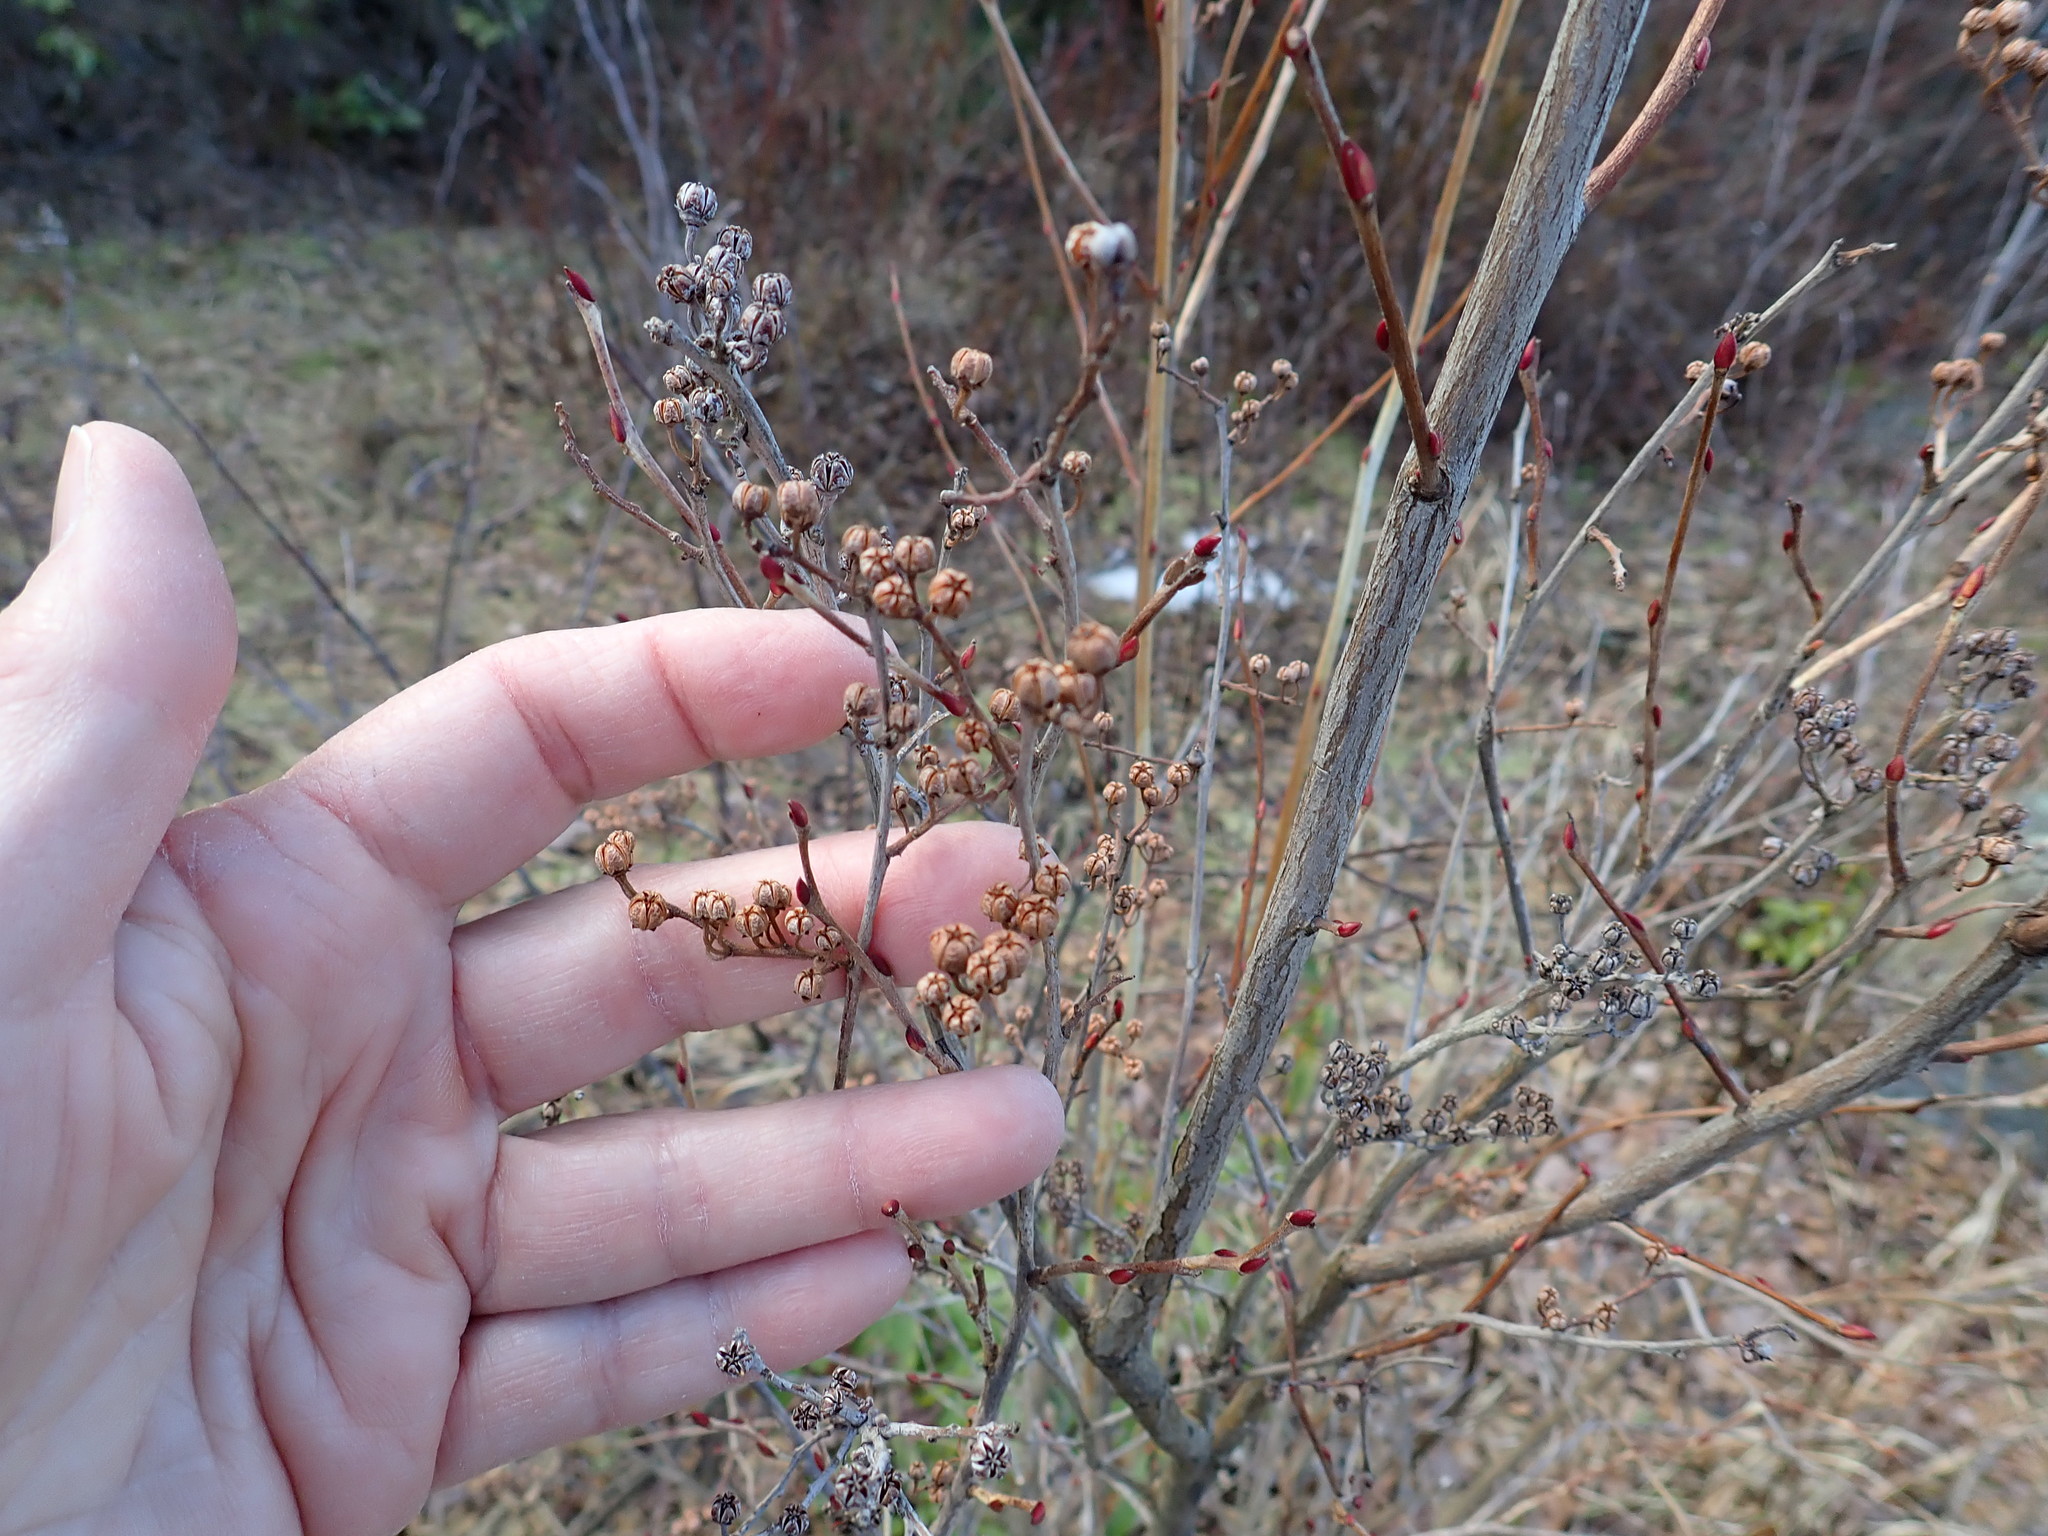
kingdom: Plantae
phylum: Tracheophyta
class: Magnoliopsida
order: Ericales
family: Ericaceae
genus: Lyonia
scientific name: Lyonia ligustrina
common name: Maleberry
